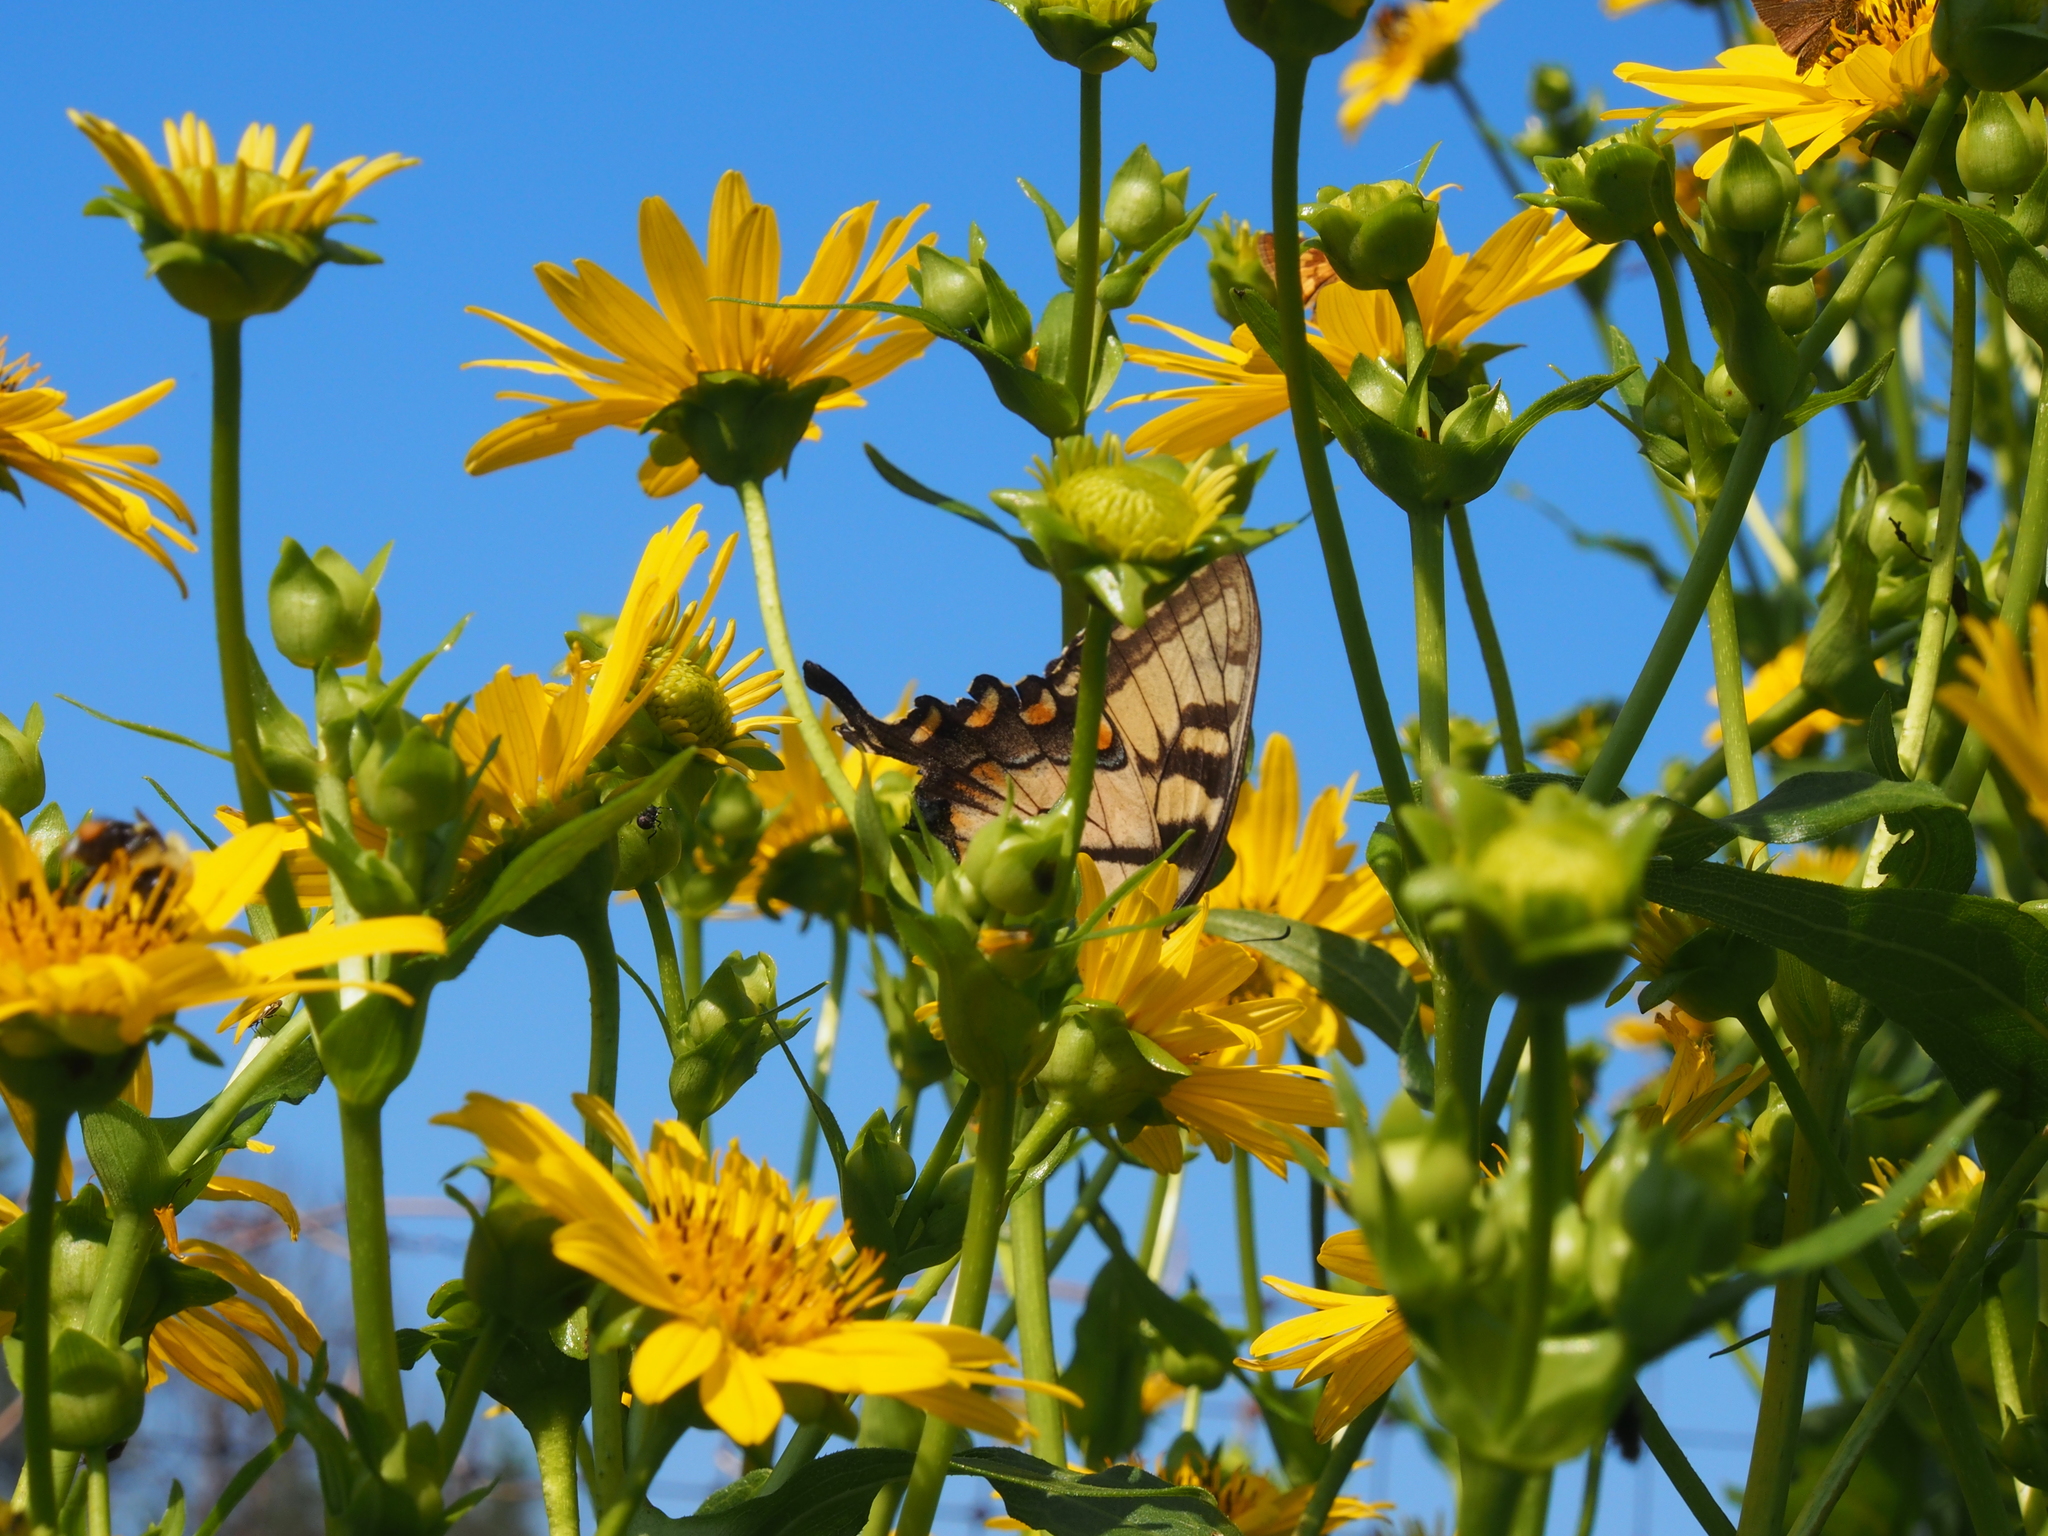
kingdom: Animalia
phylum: Arthropoda
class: Insecta
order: Lepidoptera
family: Papilionidae
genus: Papilio
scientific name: Papilio glaucus
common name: Tiger swallowtail
